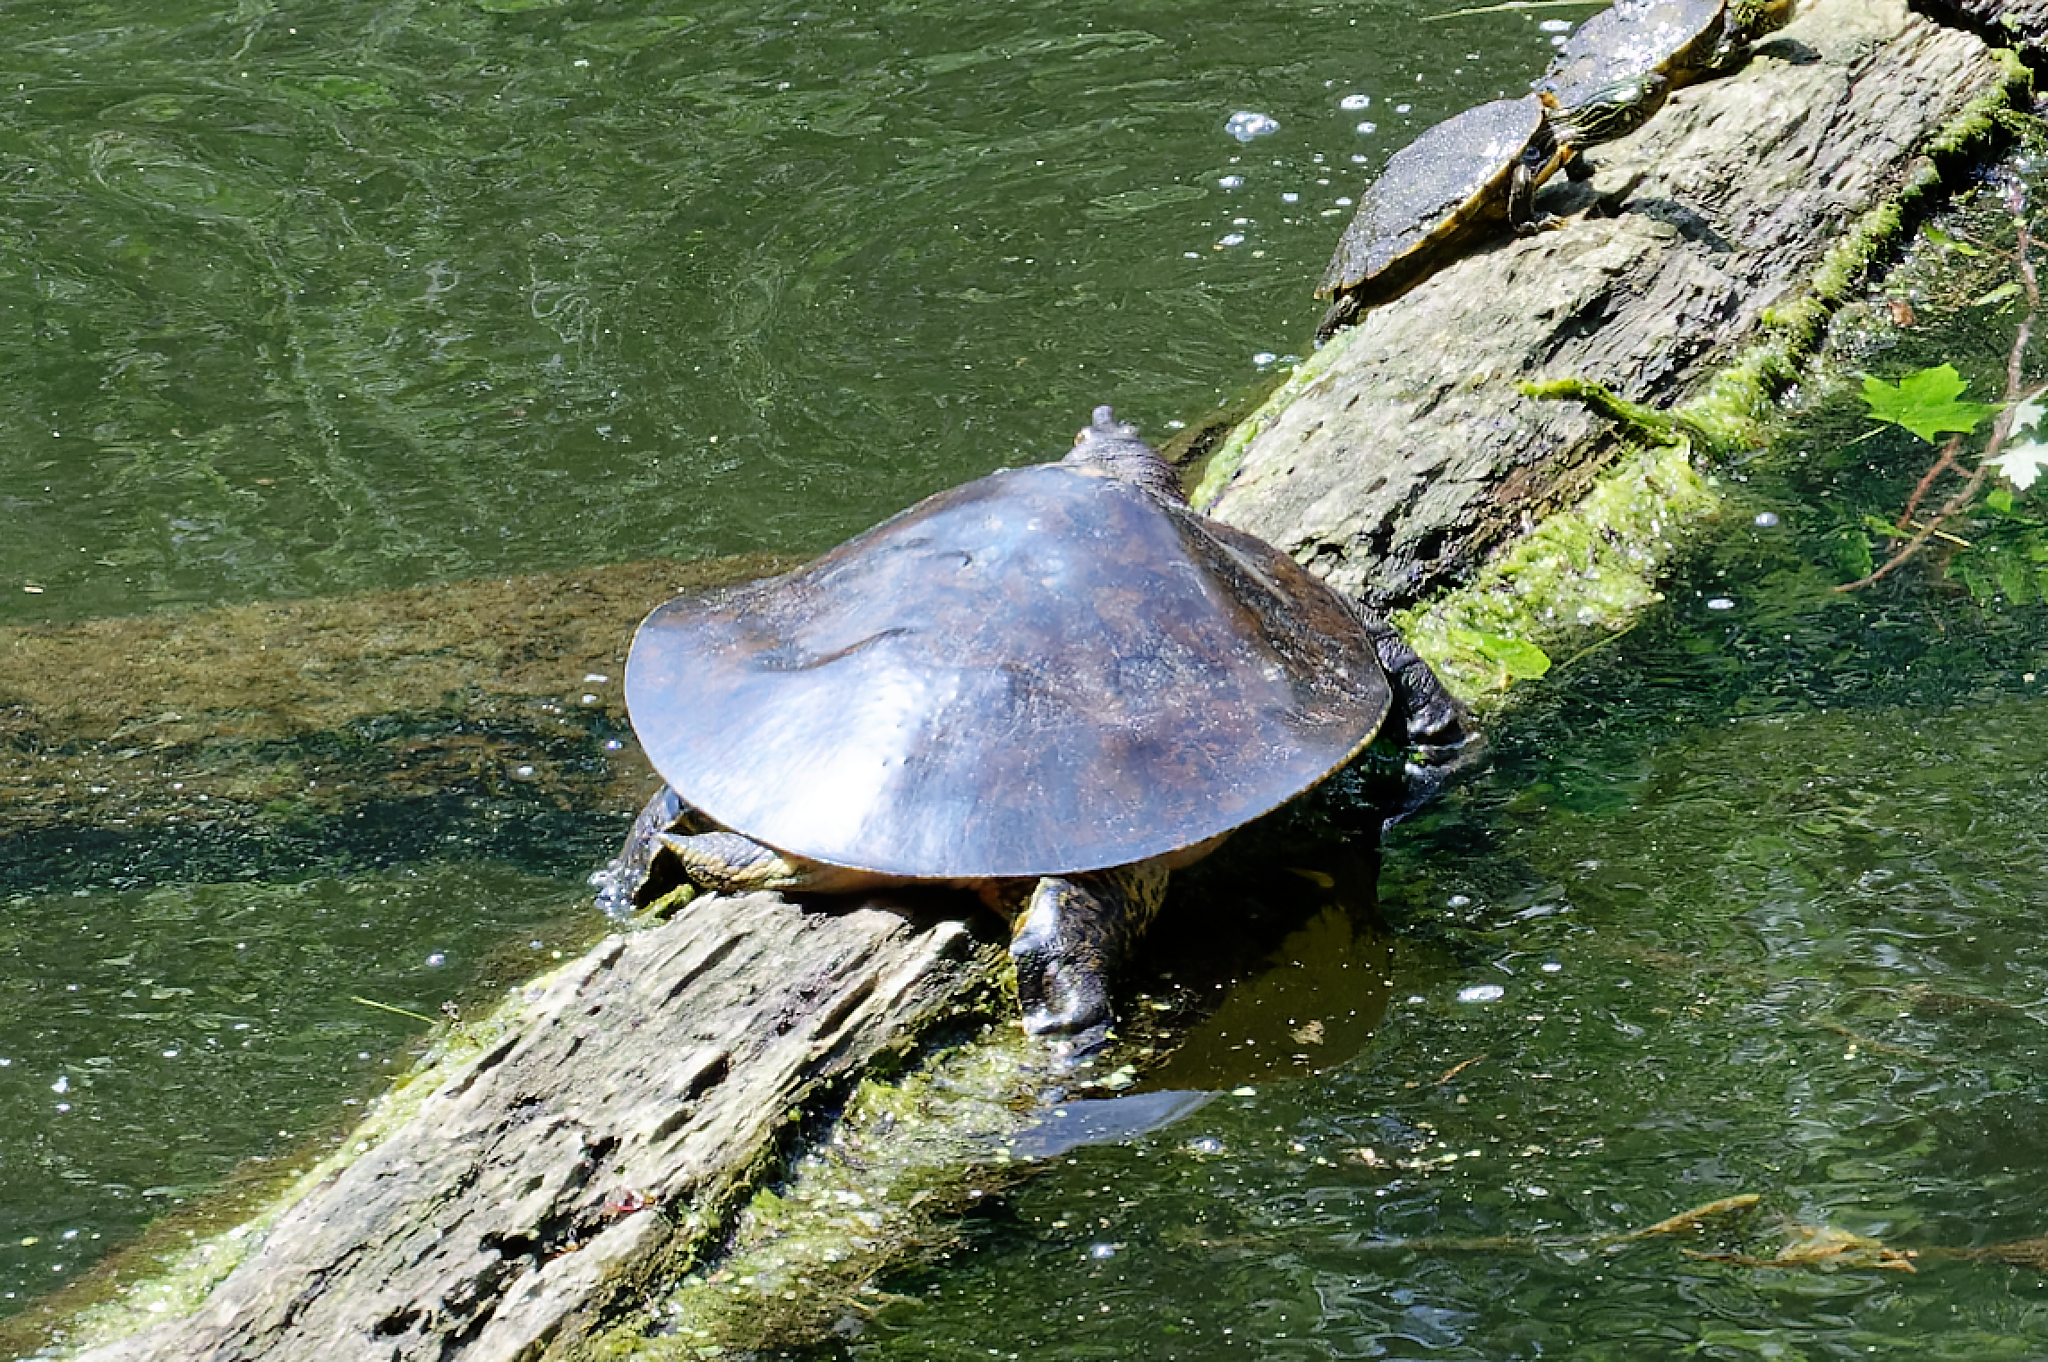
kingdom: Animalia
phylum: Chordata
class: Testudines
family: Trionychidae
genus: Apalone
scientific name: Apalone spinifera
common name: Spiny softshell turtle
